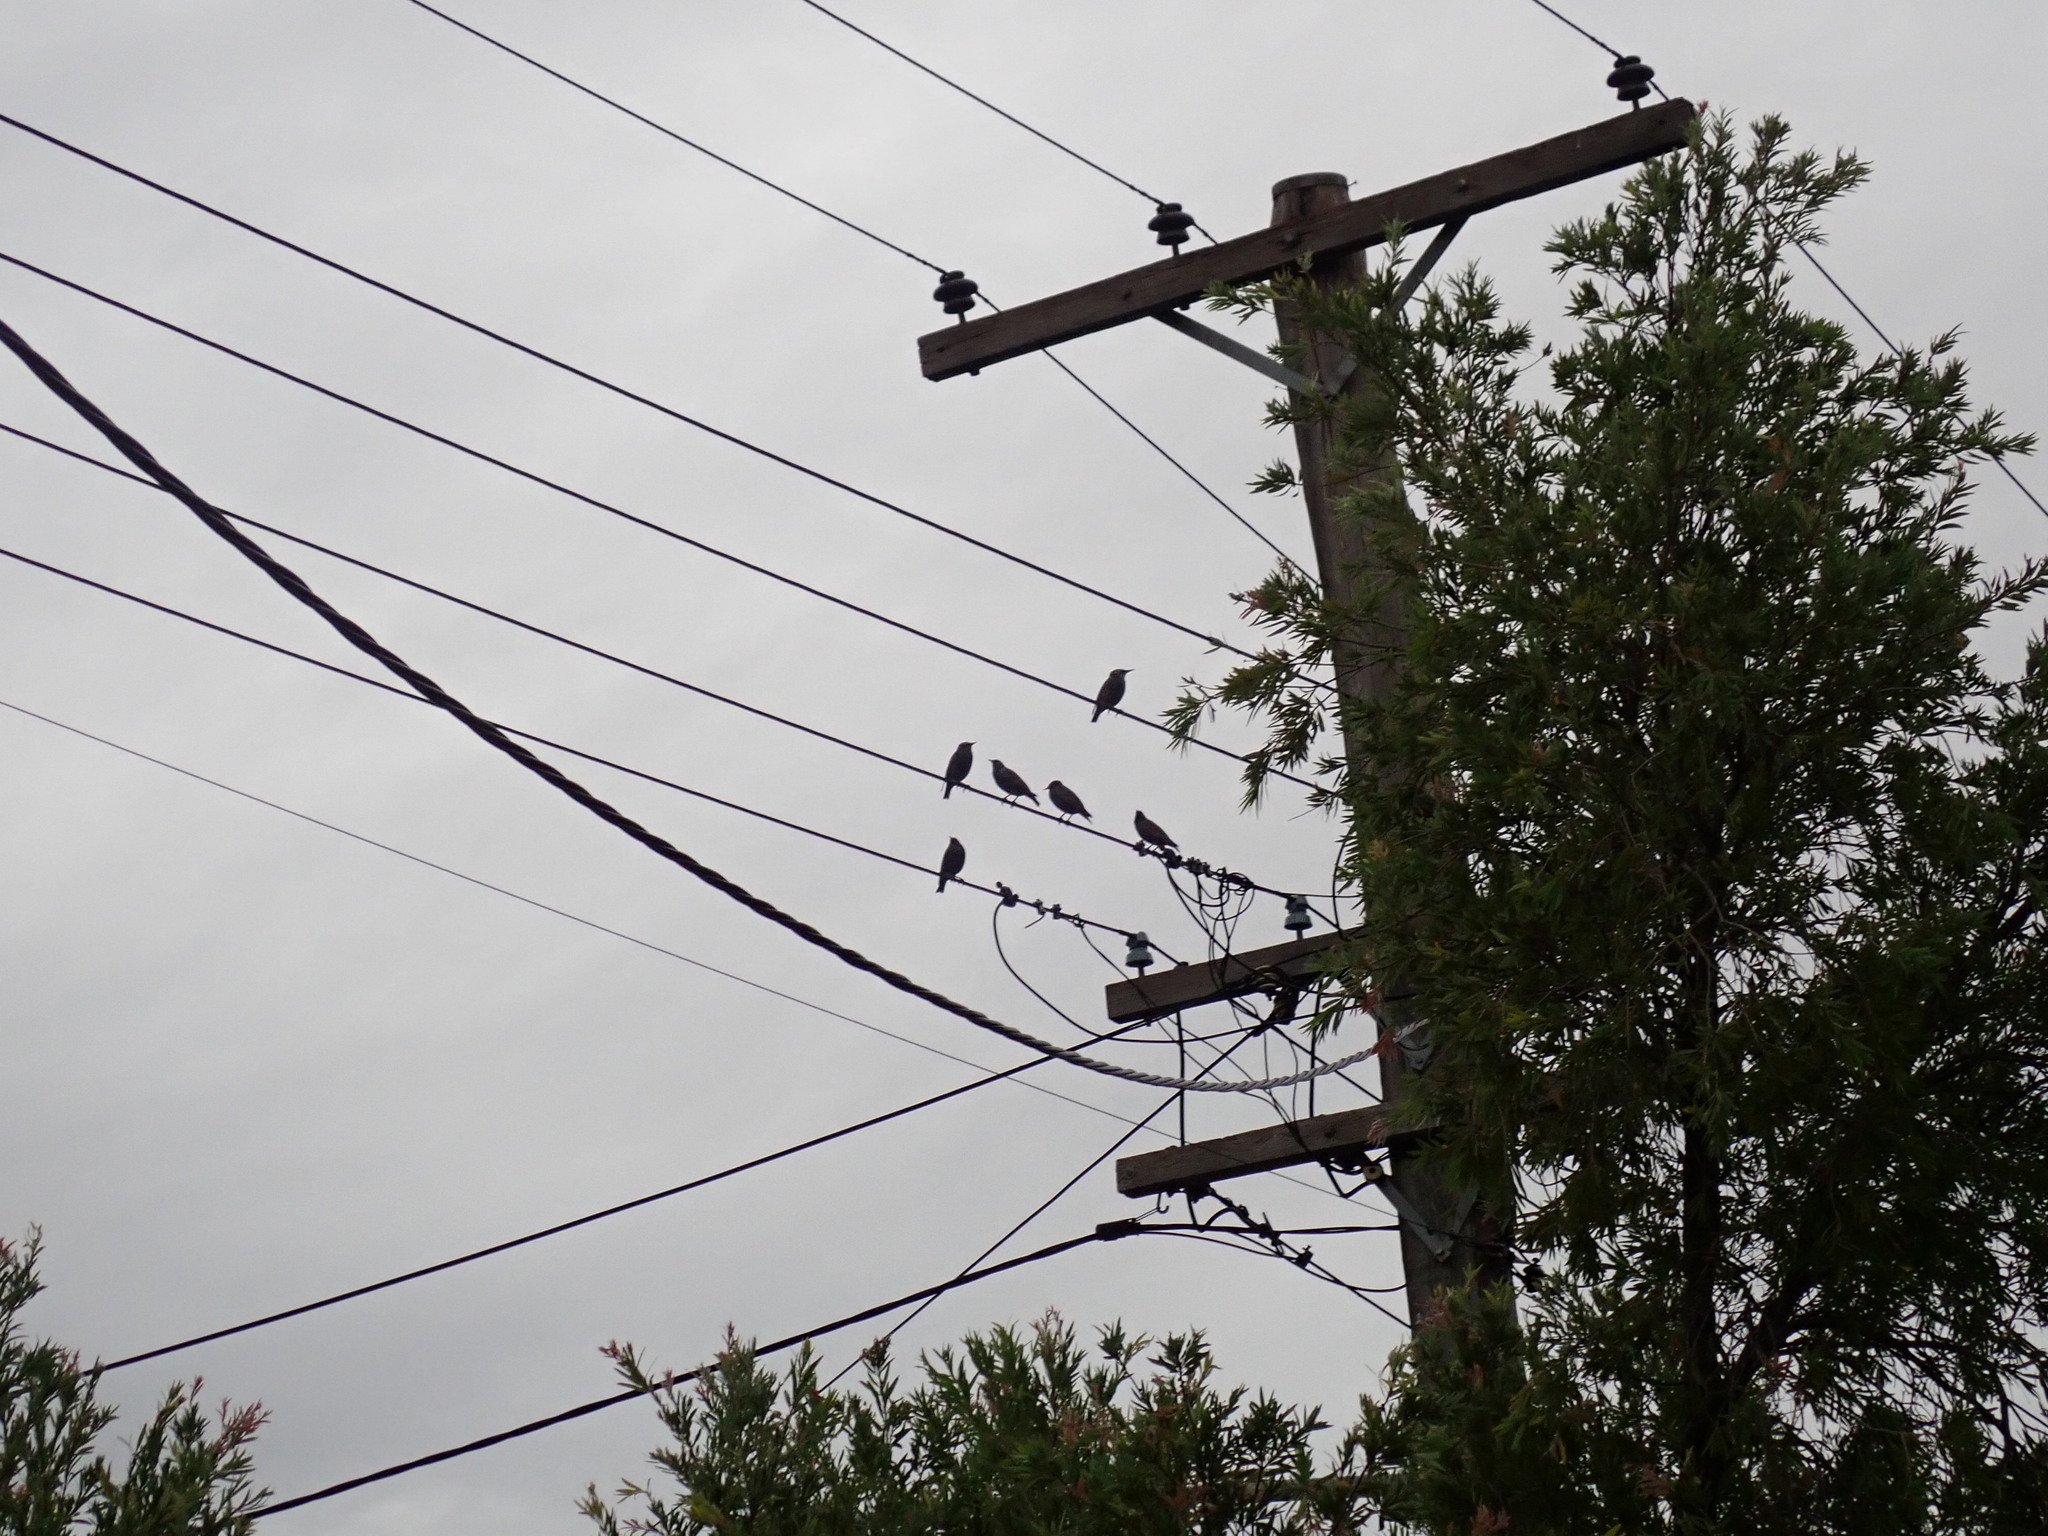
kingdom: Animalia
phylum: Chordata
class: Aves
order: Passeriformes
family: Sturnidae
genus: Sturnus
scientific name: Sturnus vulgaris
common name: Common starling
